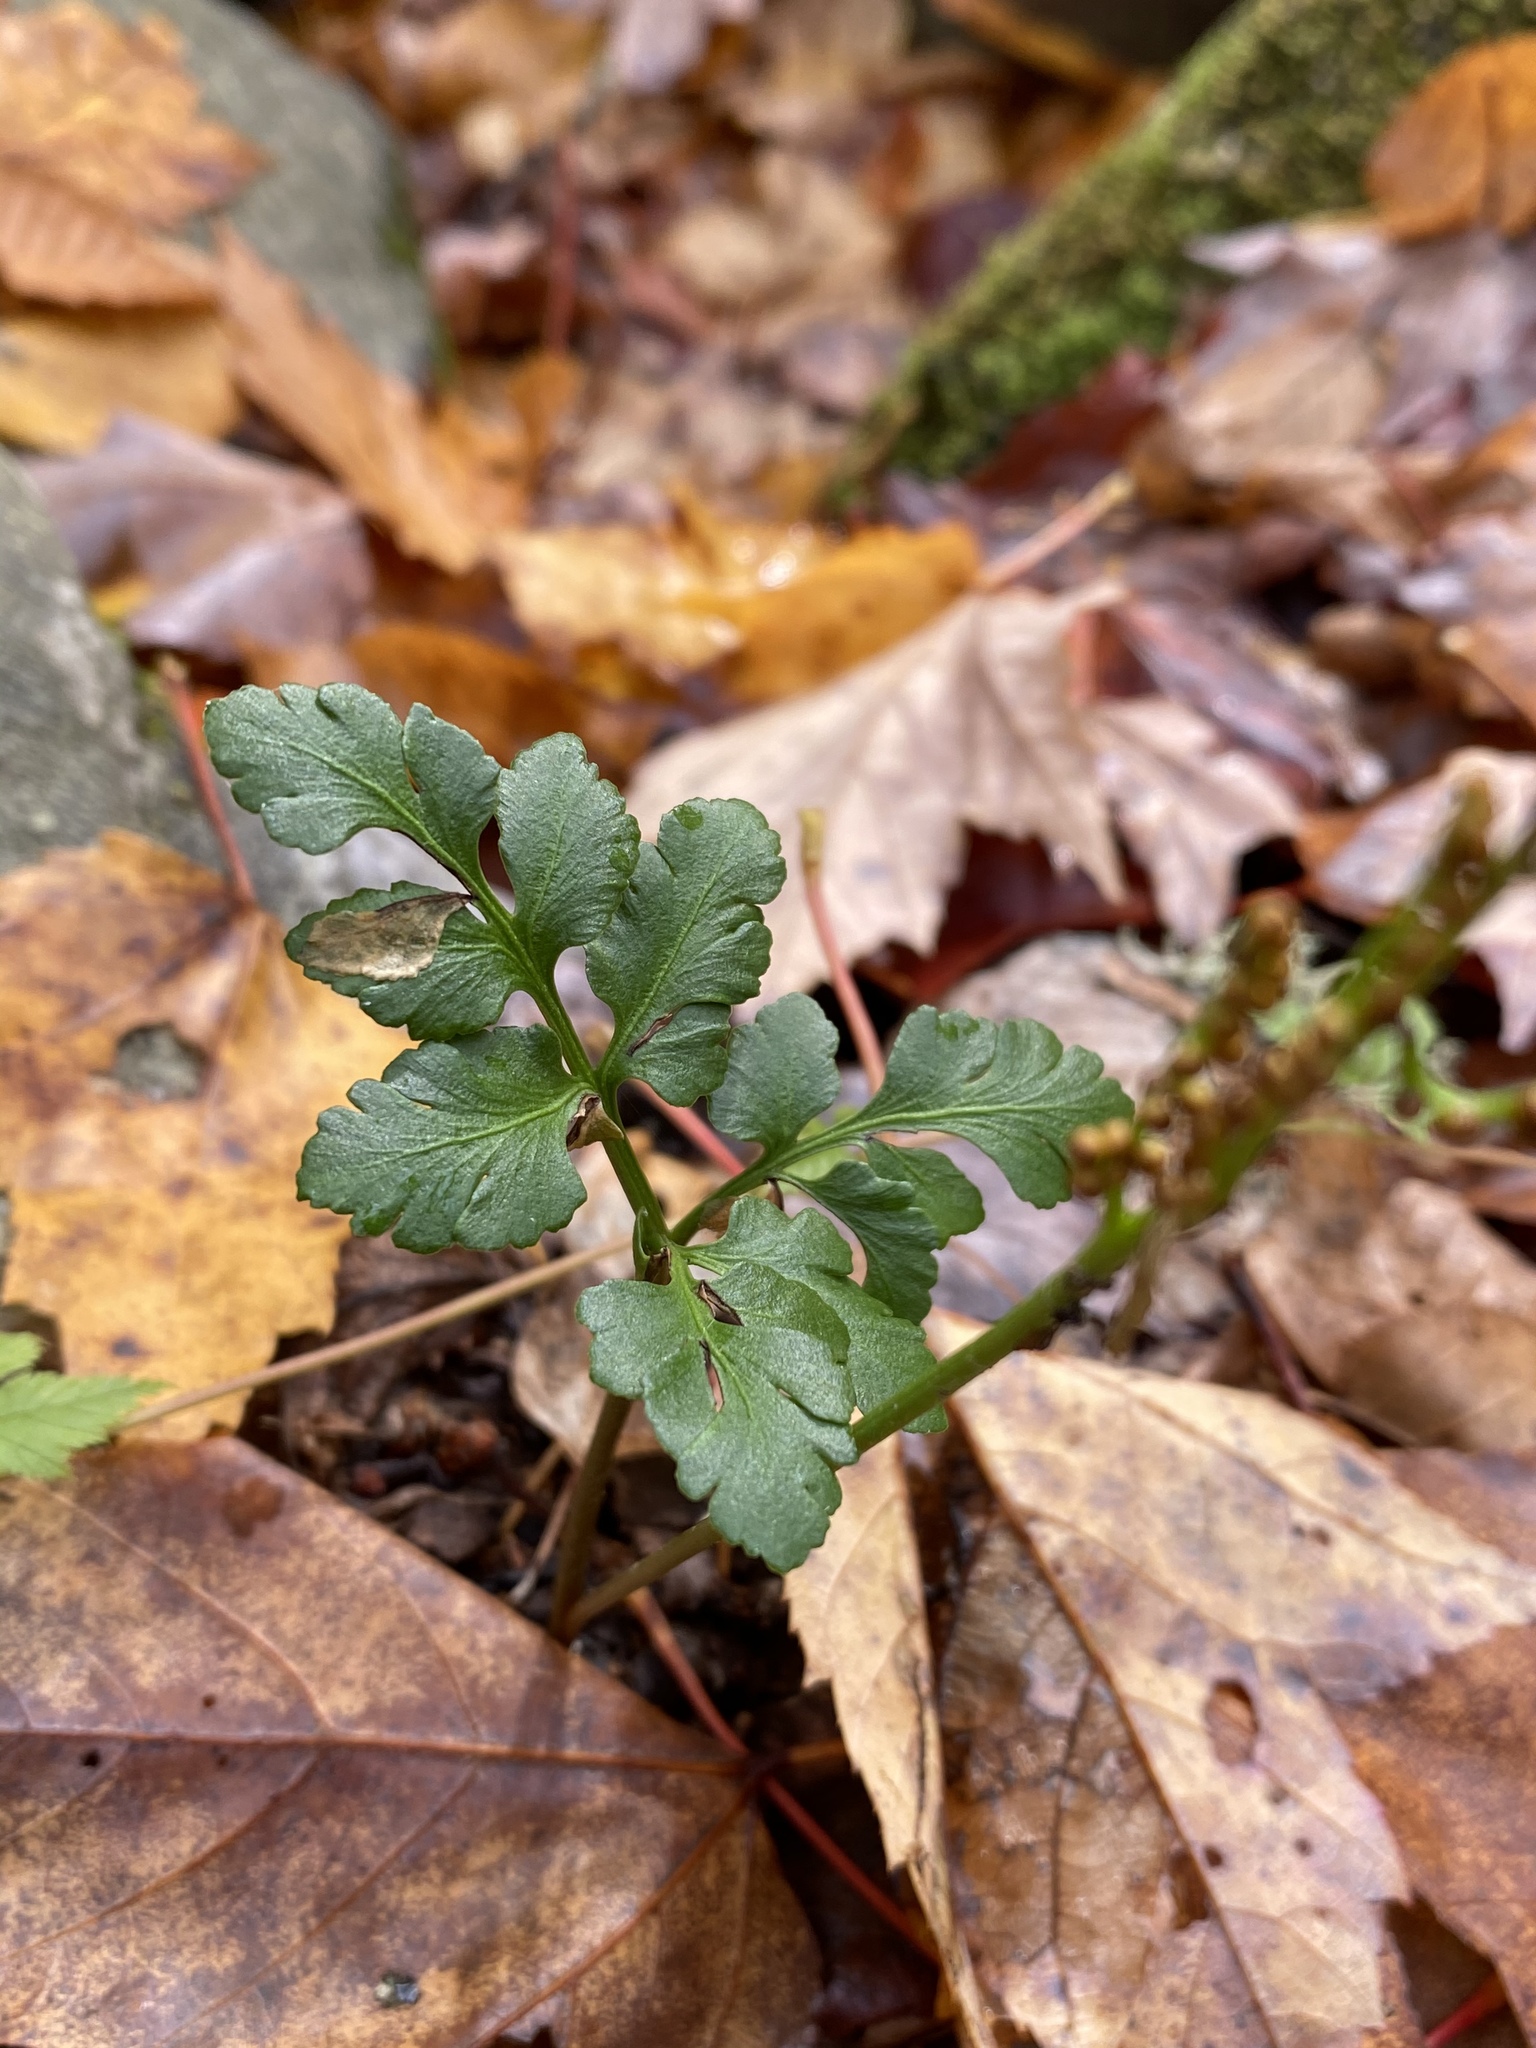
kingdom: Plantae
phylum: Tracheophyta
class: Polypodiopsida
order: Ophioglossales
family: Ophioglossaceae
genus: Sceptridium
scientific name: Sceptridium oneidense
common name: Blunt-lobed grapefern
